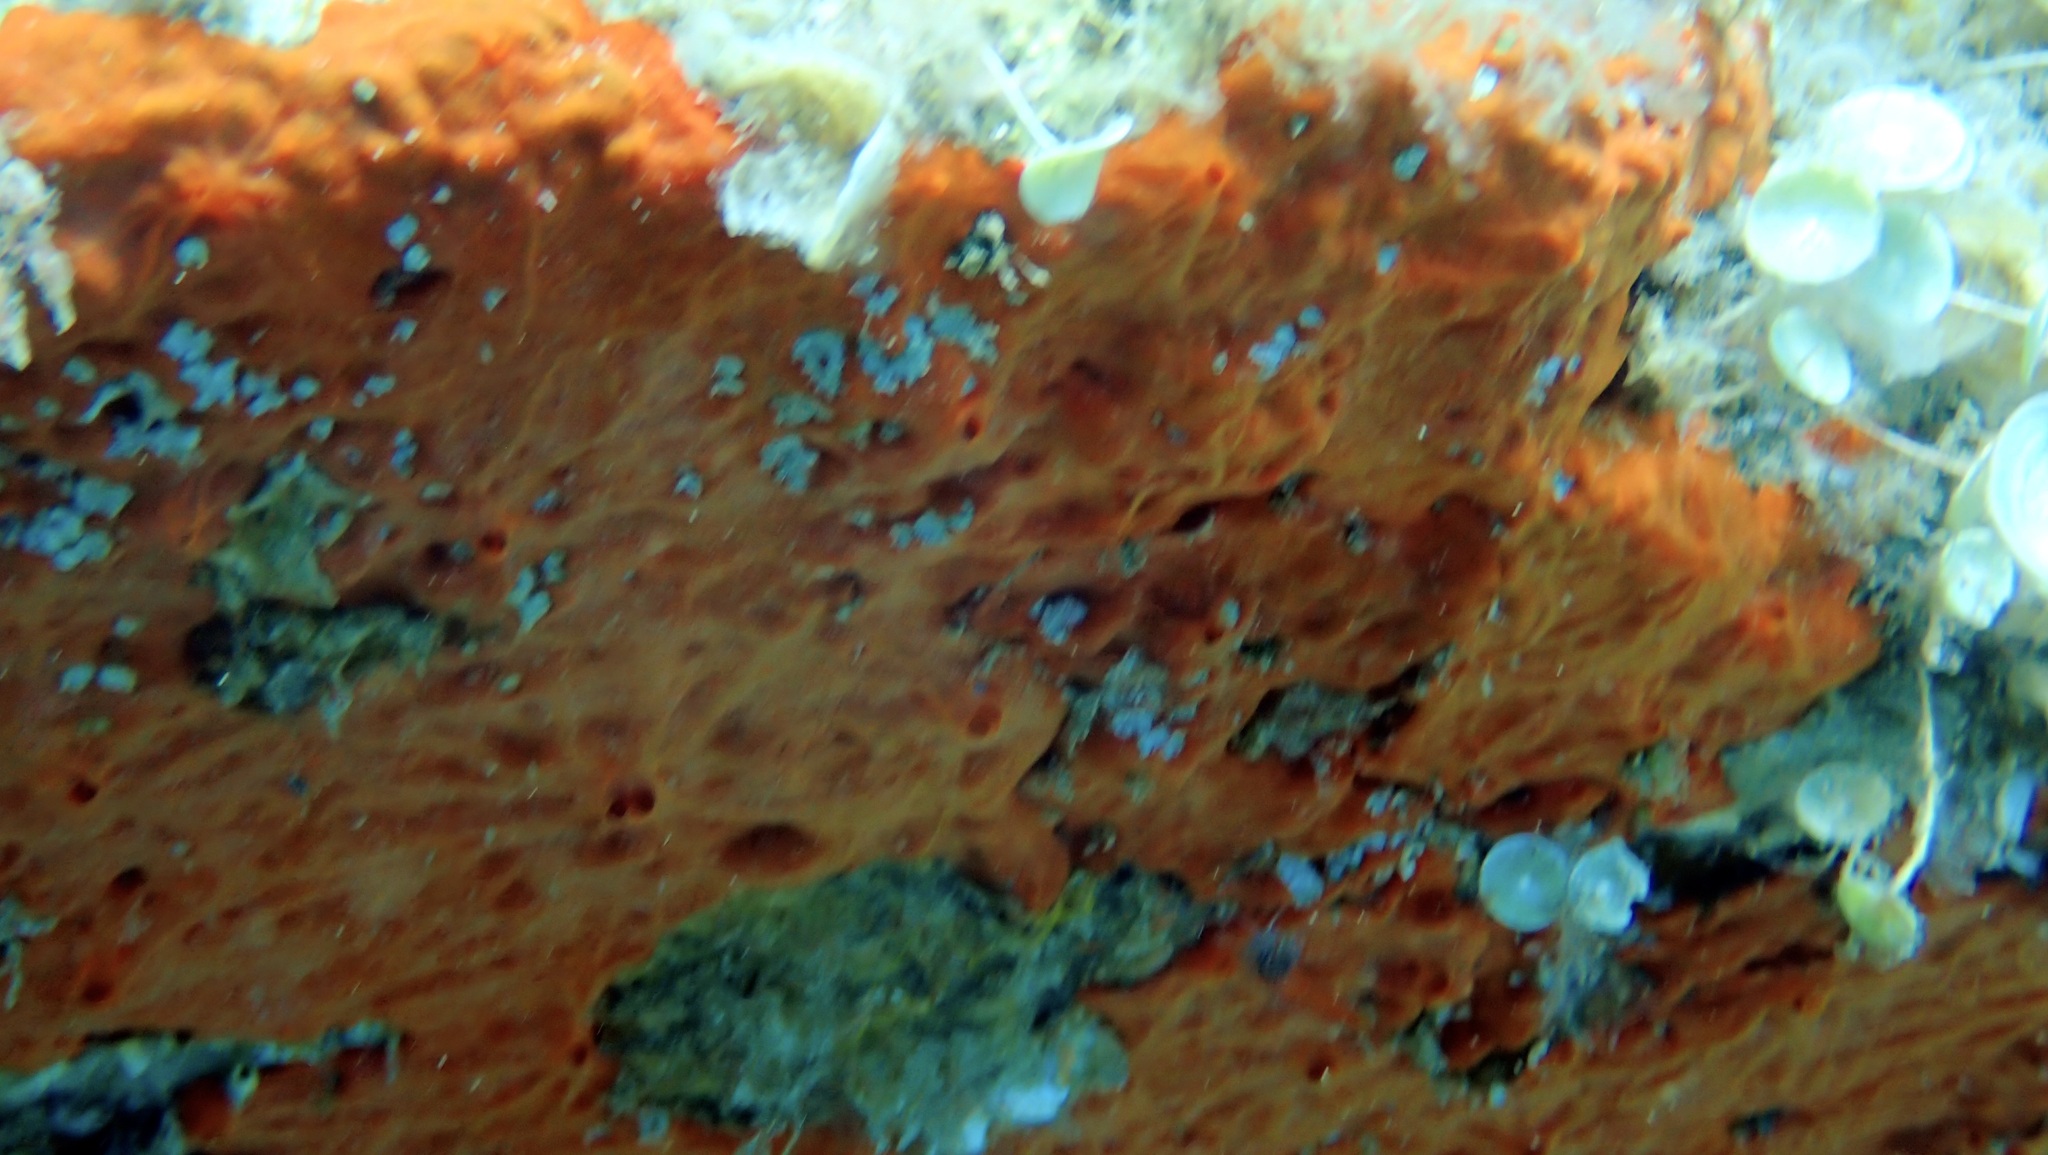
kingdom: Animalia
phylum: Porifera
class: Demospongiae
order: Poecilosclerida
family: Crambeidae
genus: Crambe
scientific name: Crambe crambe
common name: Orange-red encrusting sponge
